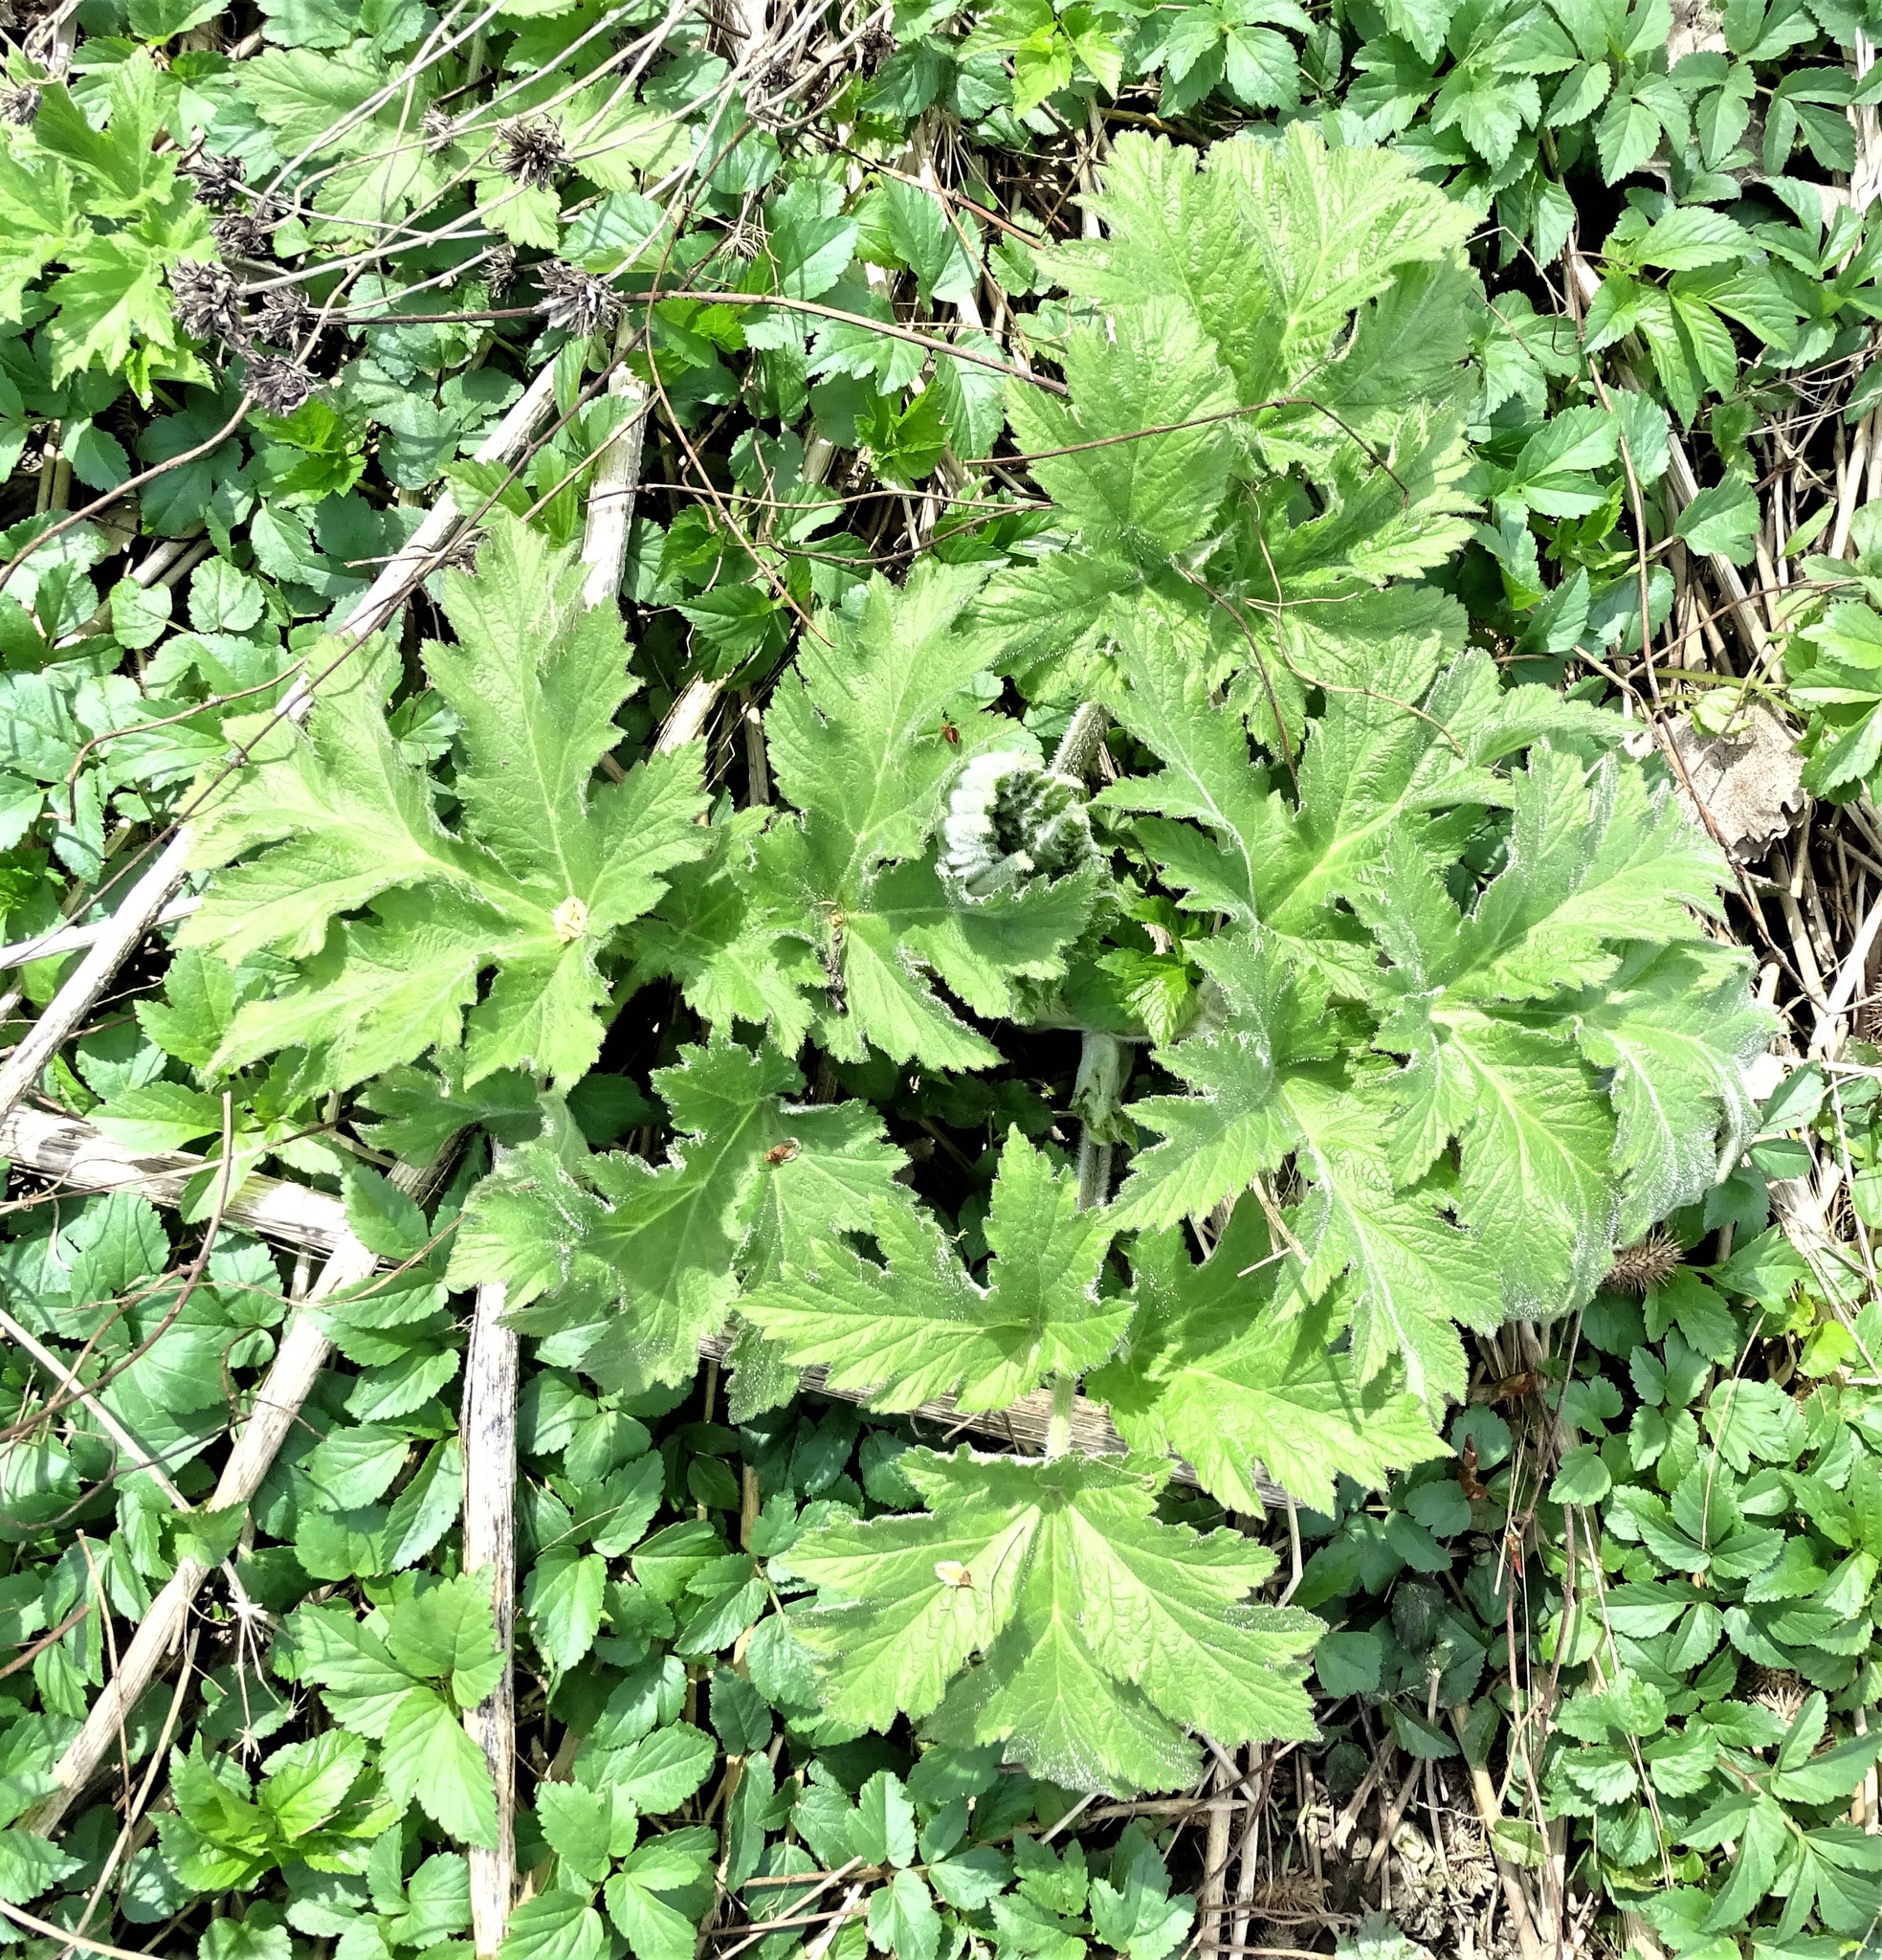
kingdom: Plantae
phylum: Tracheophyta
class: Magnoliopsida
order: Apiales
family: Apiaceae
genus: Heracleum
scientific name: Heracleum maximum
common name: American cow parsnip
